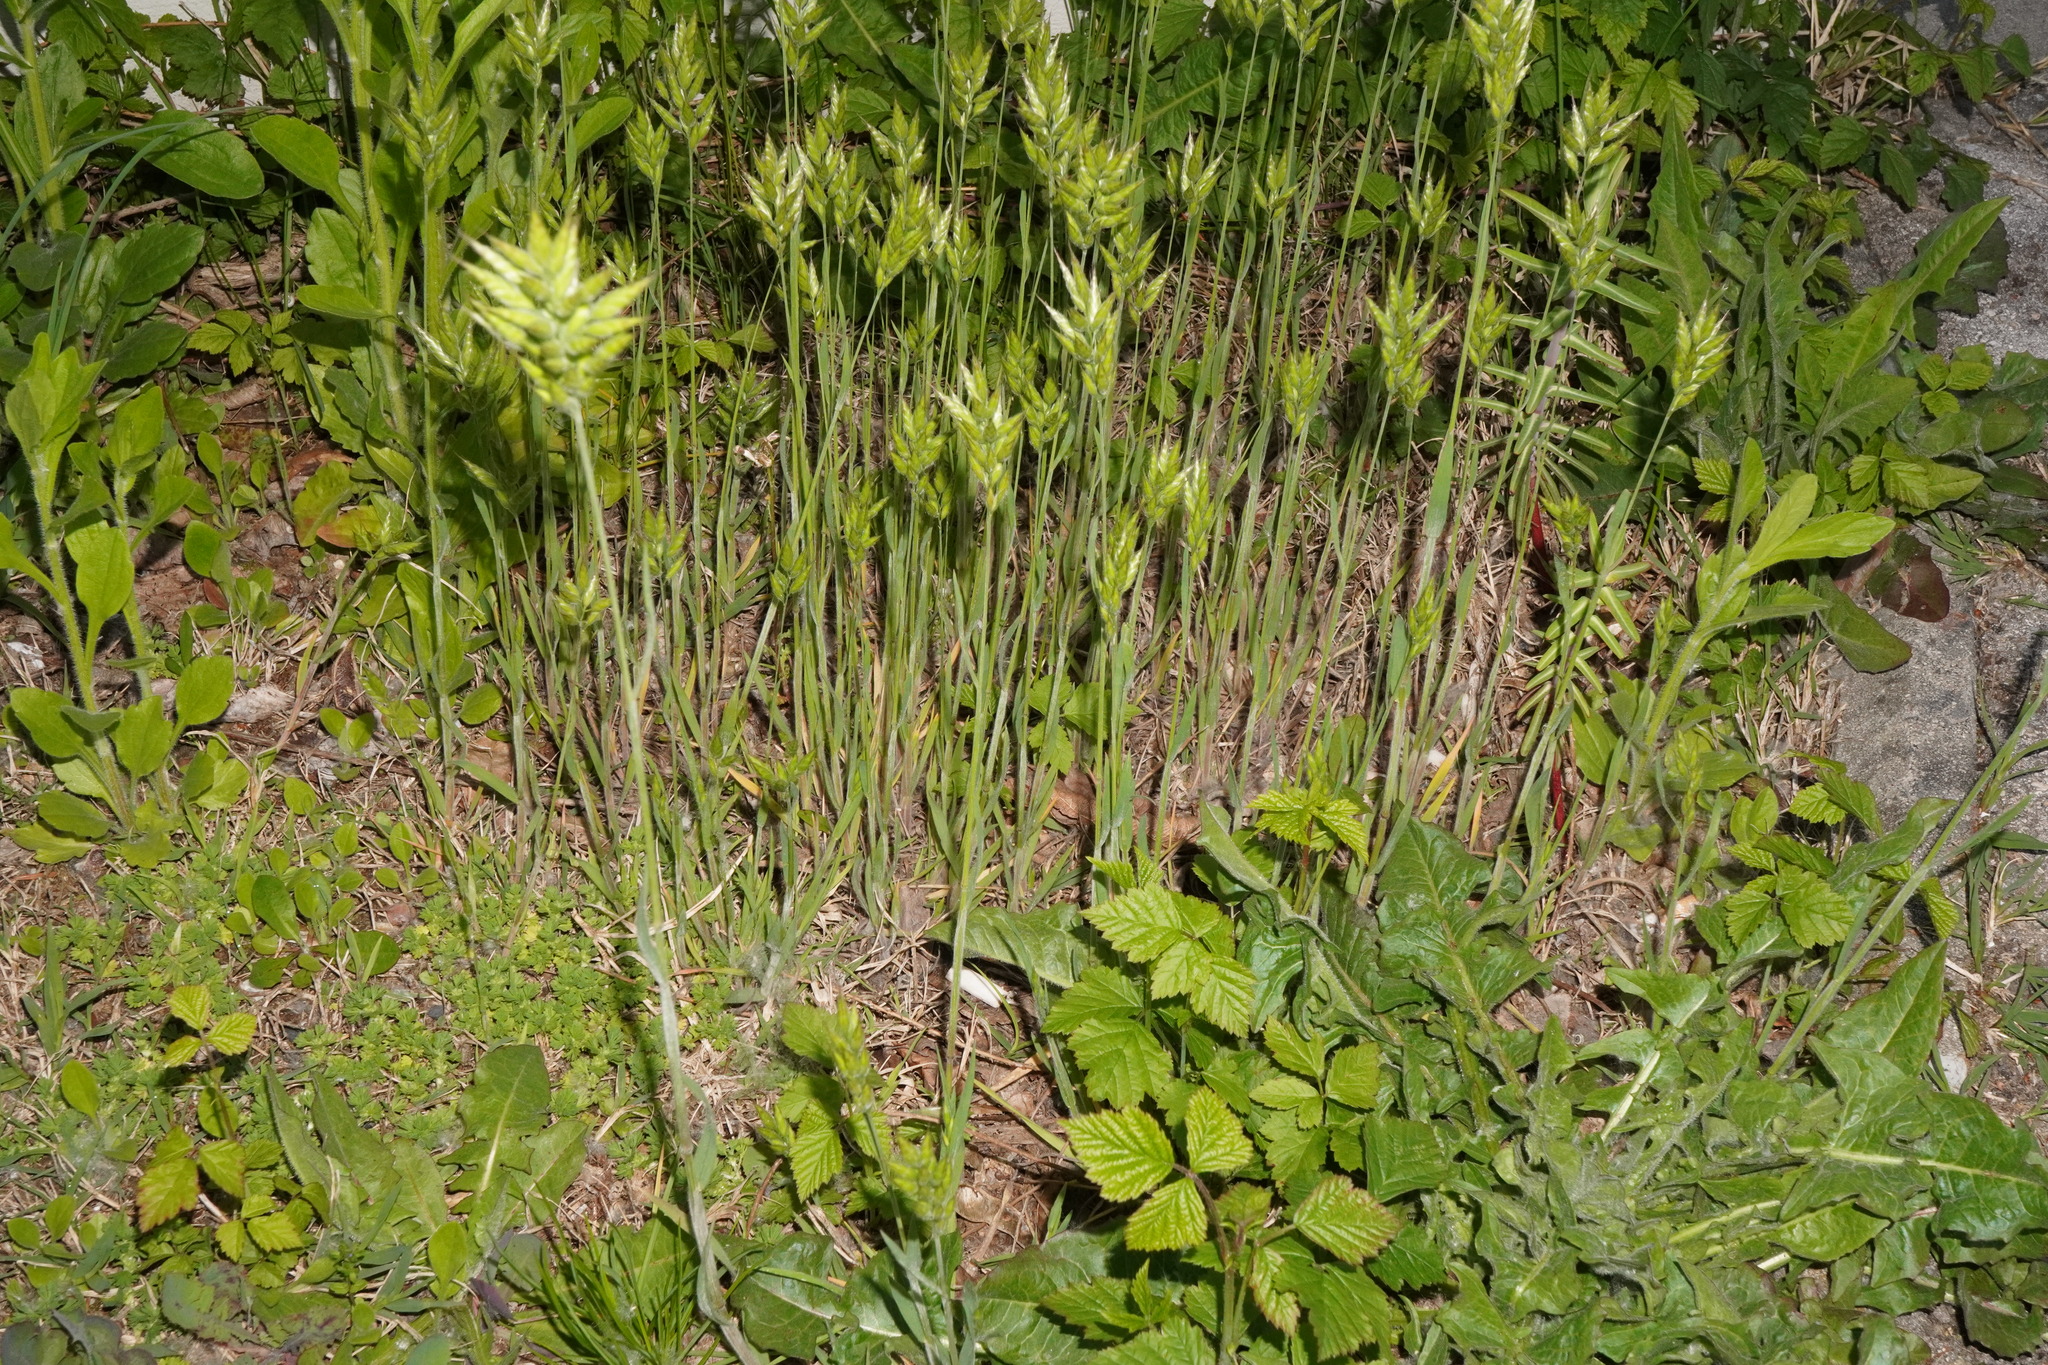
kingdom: Plantae
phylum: Tracheophyta
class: Liliopsida
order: Poales
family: Poaceae
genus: Bromus
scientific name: Bromus hordeaceus
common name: Soft brome
